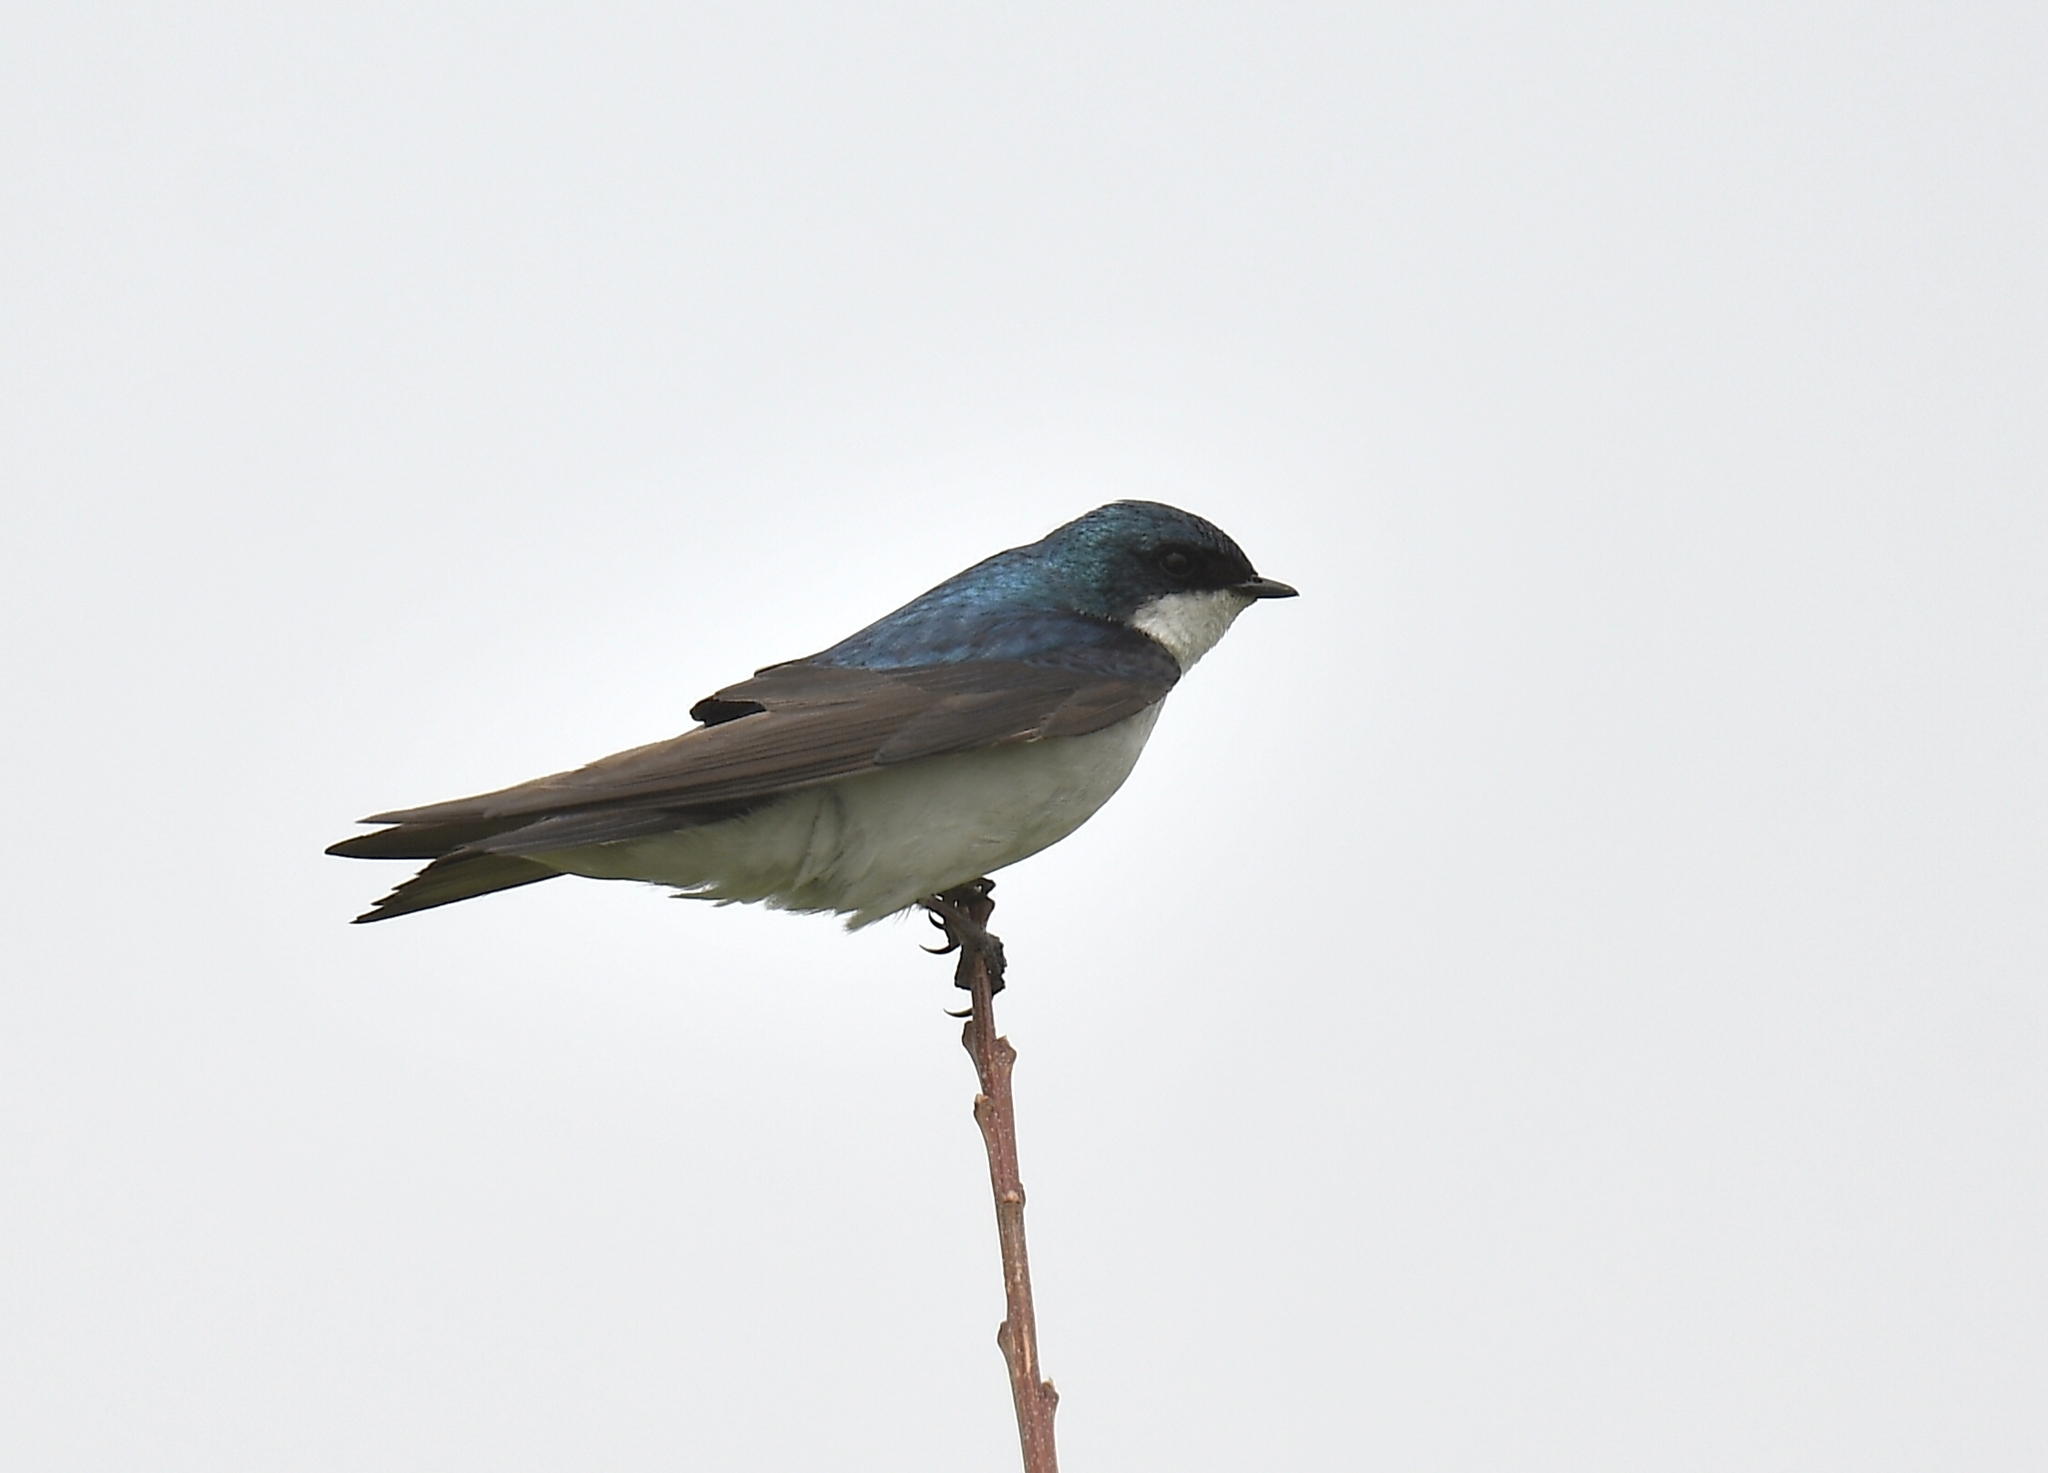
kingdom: Animalia
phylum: Chordata
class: Aves
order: Passeriformes
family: Hirundinidae
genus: Tachycineta
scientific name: Tachycineta bicolor
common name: Tree swallow
